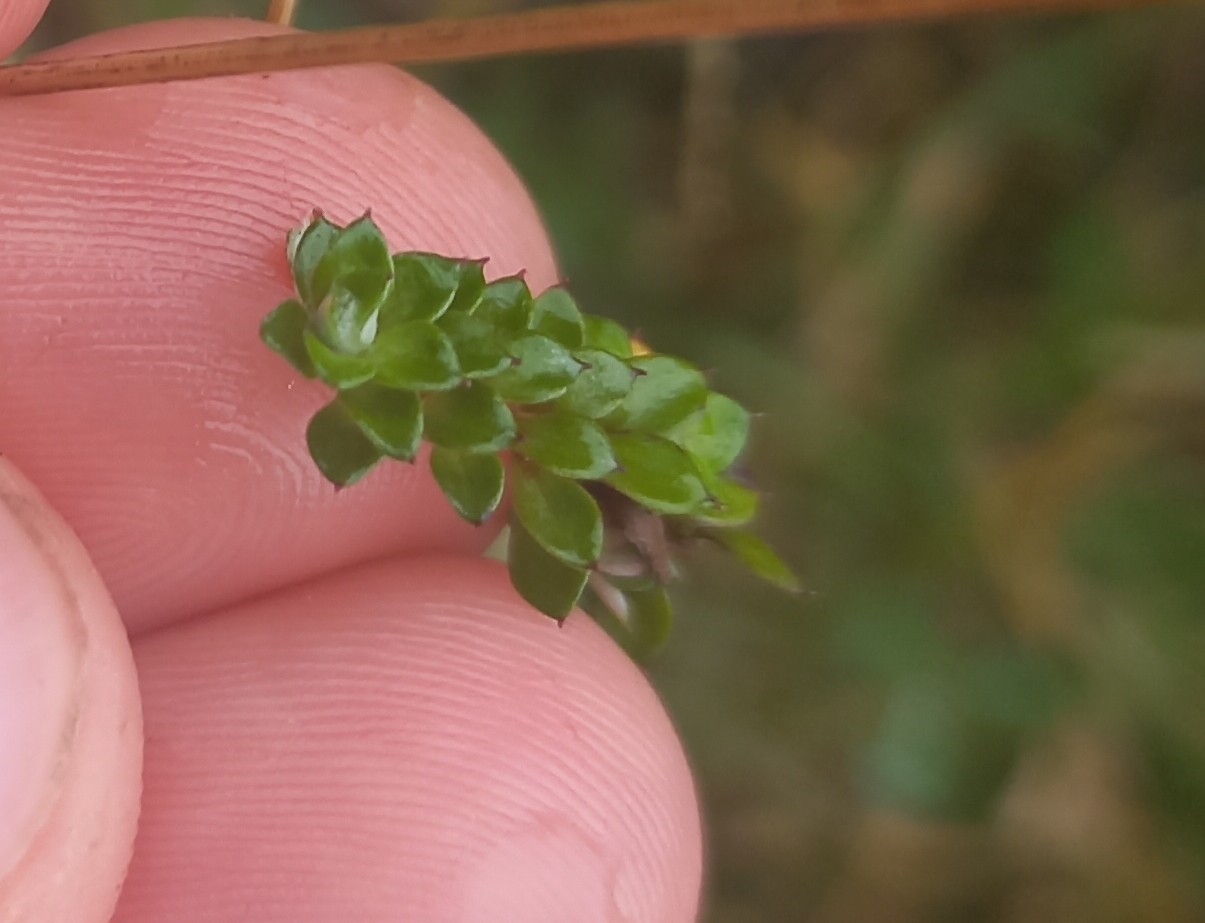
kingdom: Plantae
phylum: Tracheophyta
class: Magnoliopsida
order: Asterales
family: Asteraceae
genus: Anaphalioides
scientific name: Anaphalioides bellidioides
